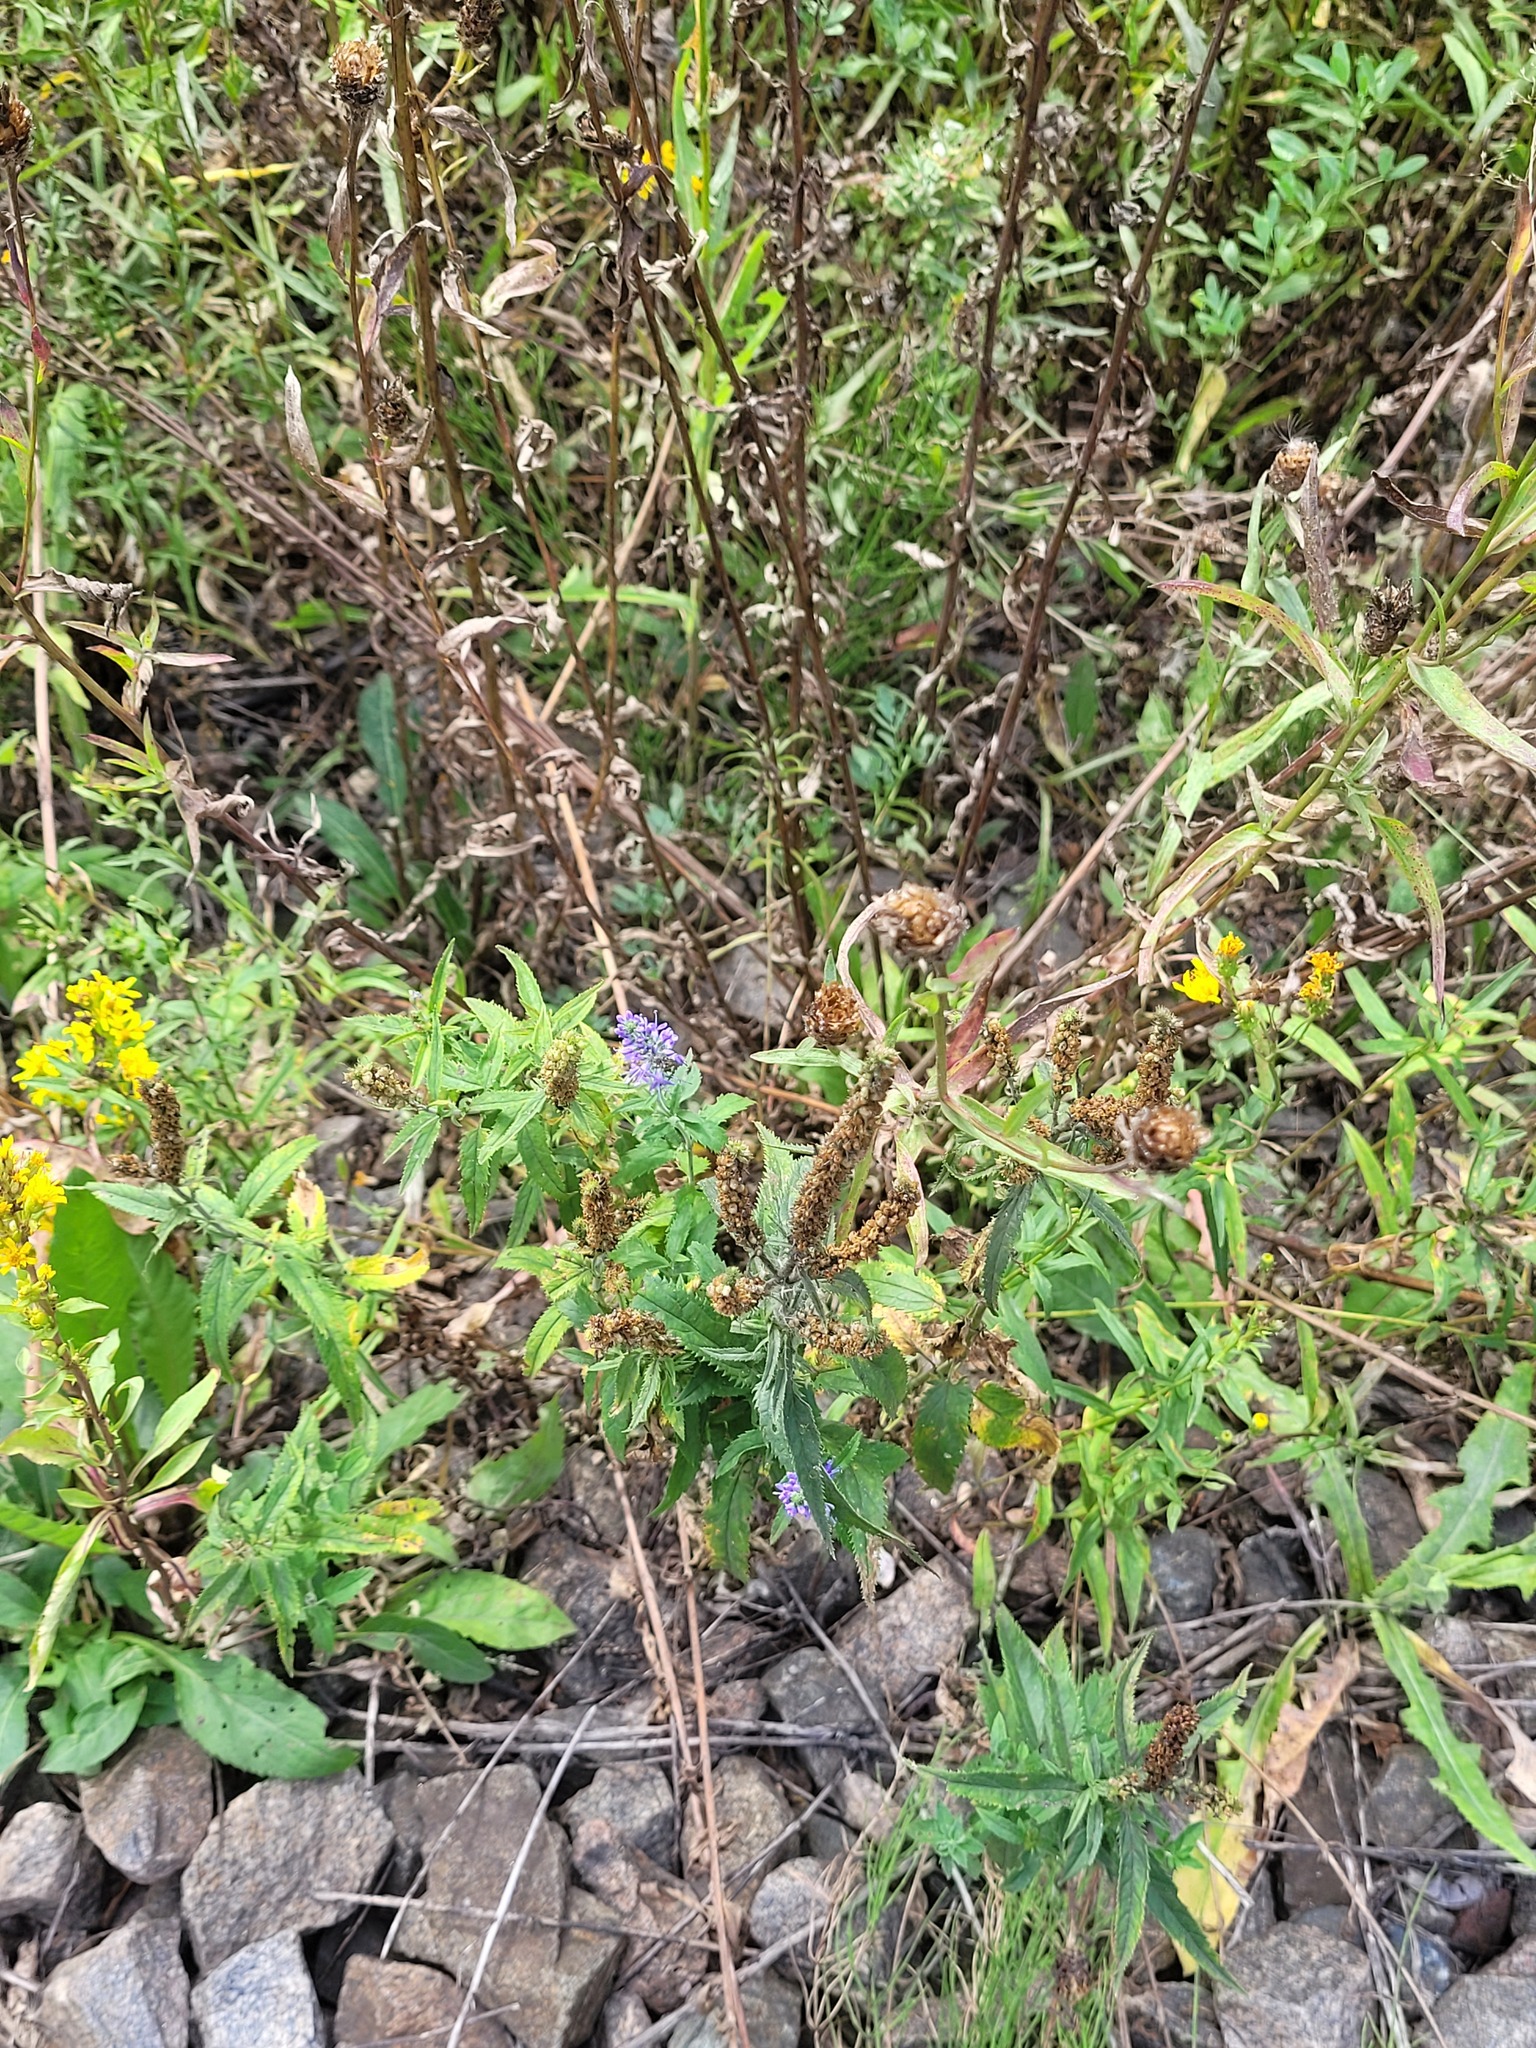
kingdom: Plantae
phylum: Tracheophyta
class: Magnoliopsida
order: Lamiales
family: Plantaginaceae
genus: Veronica
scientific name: Veronica longifolia
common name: Garden speedwell
